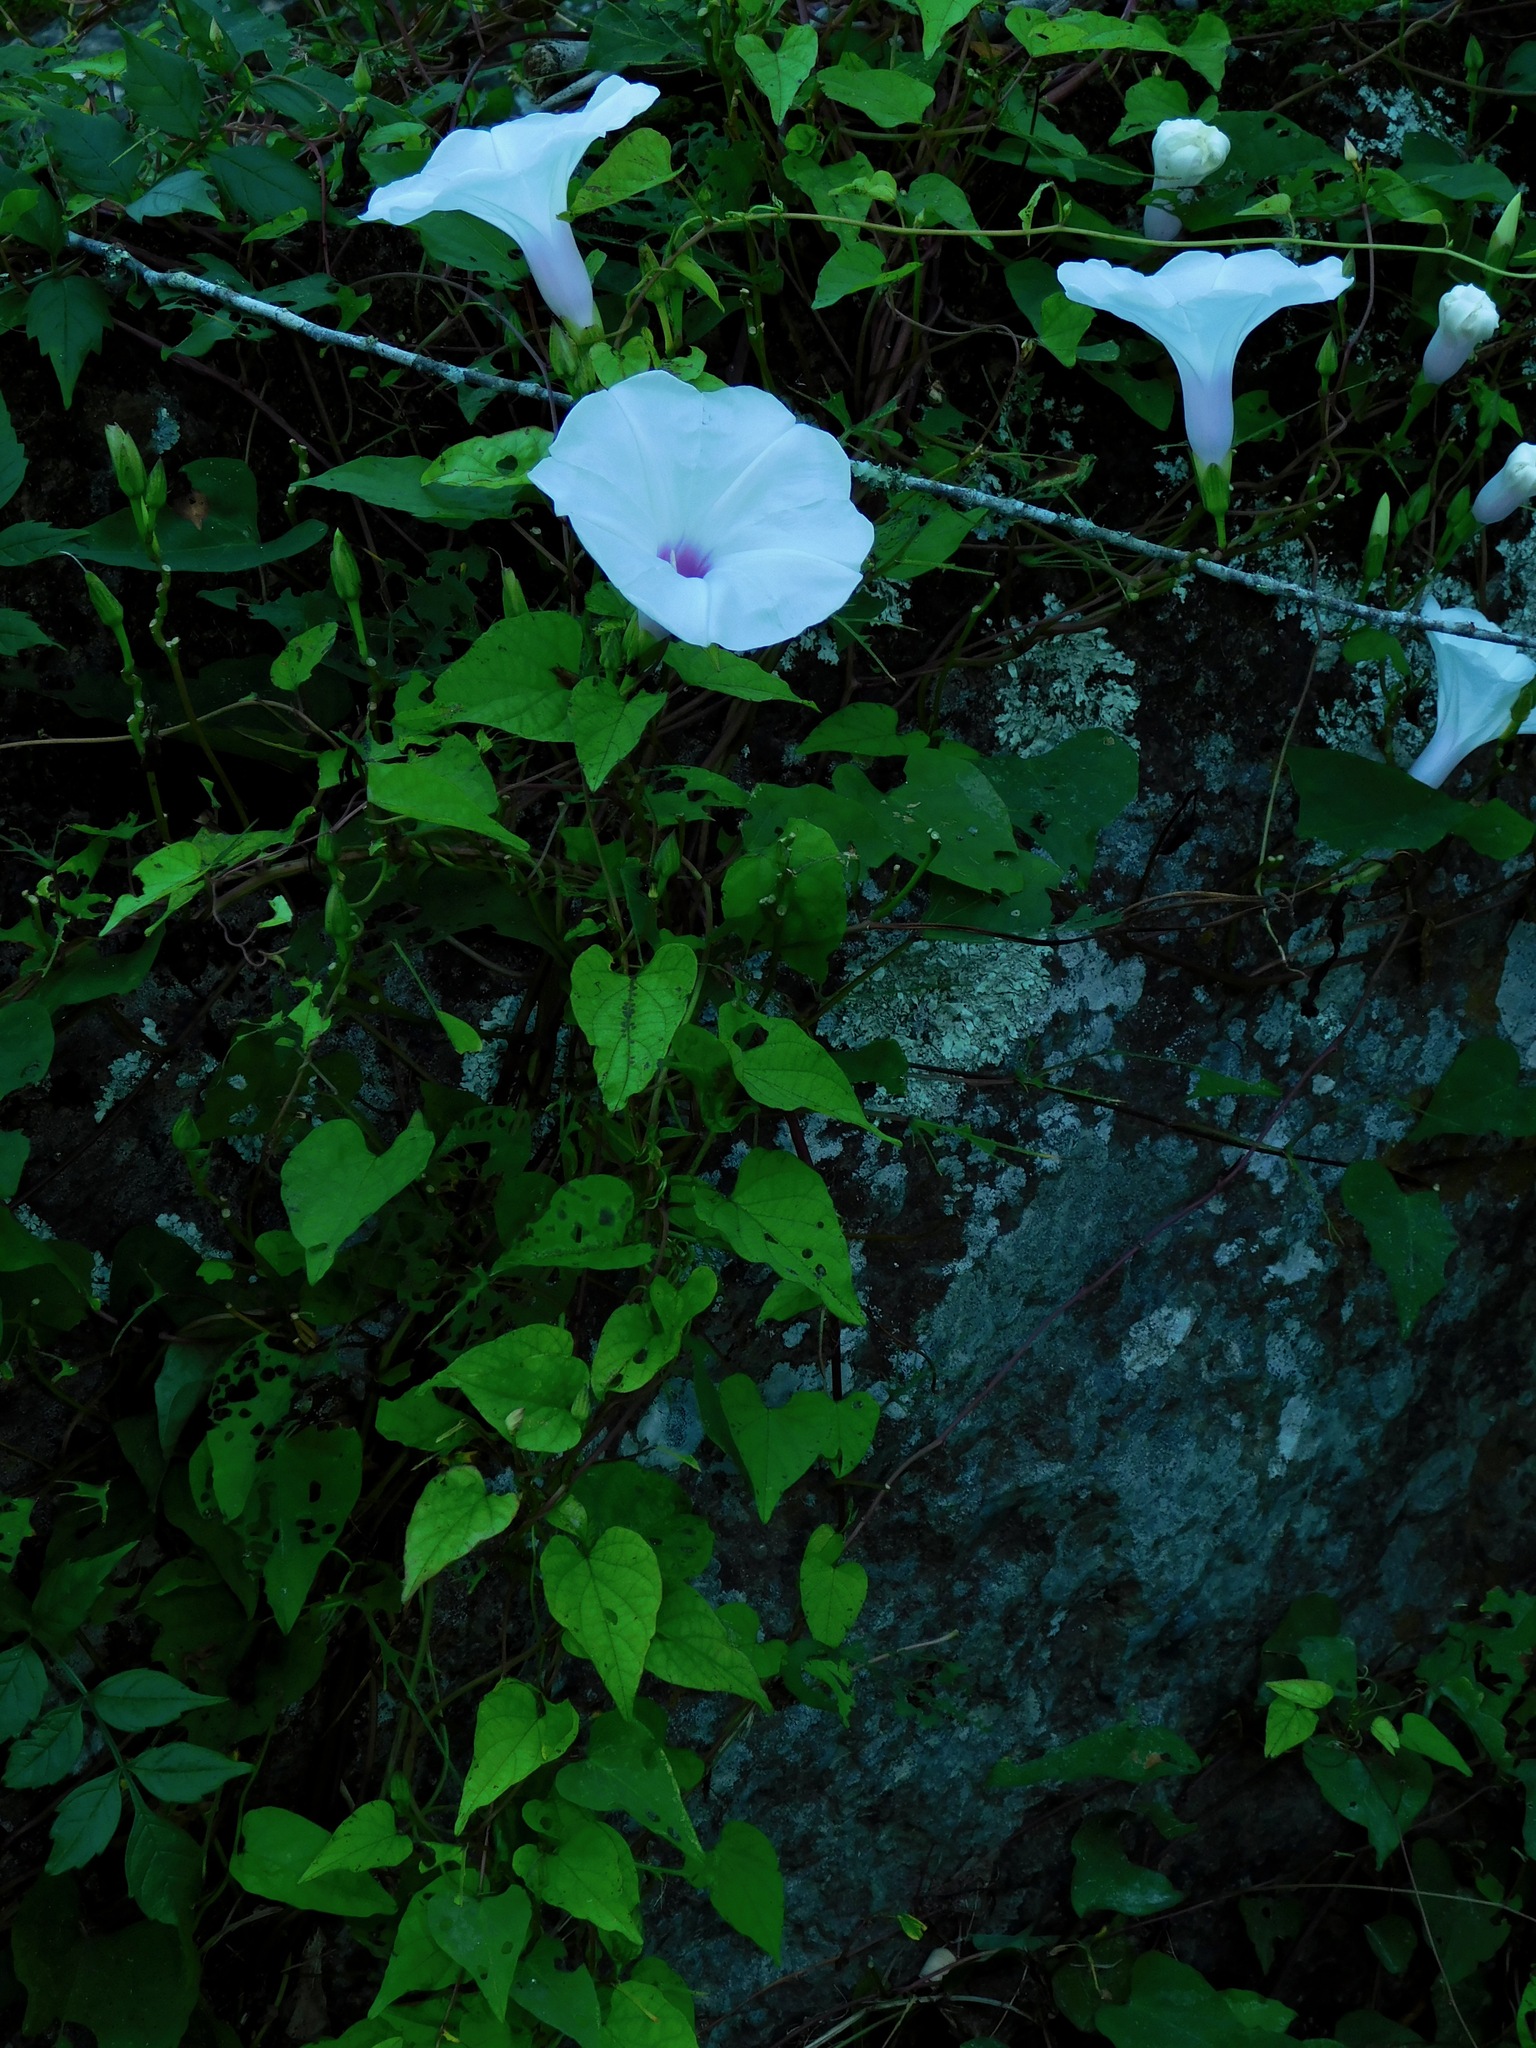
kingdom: Plantae
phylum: Tracheophyta
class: Magnoliopsida
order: Solanales
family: Convolvulaceae
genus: Ipomoea
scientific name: Ipomoea pandurata
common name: Man-of-the-earth
